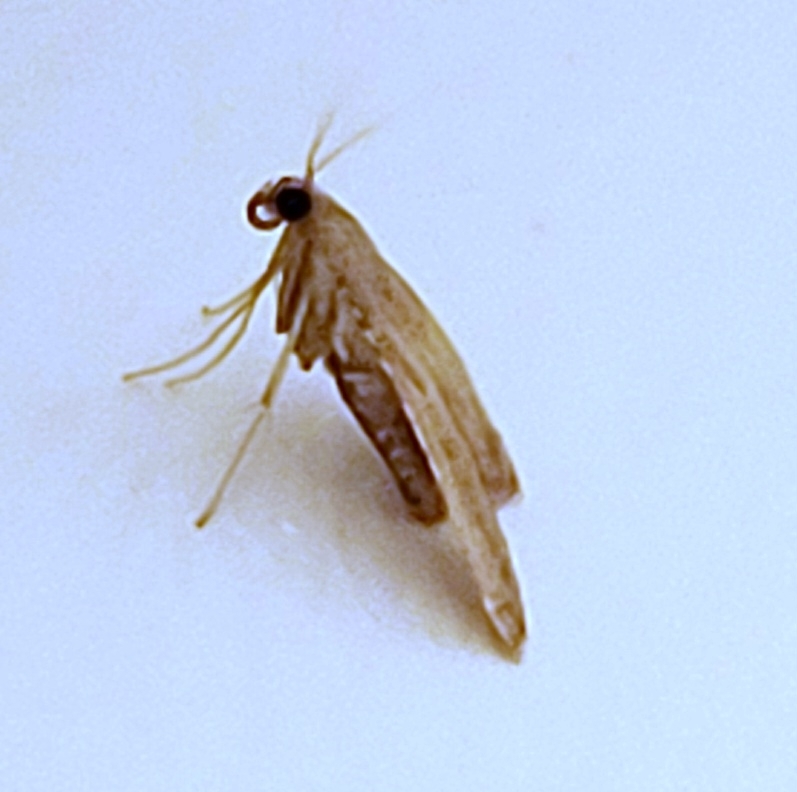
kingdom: Animalia
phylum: Arthropoda
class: Insecta
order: Lepidoptera
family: Pyralidae
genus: Endotricha
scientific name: Endotricha flammealis
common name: Rosy tabby
